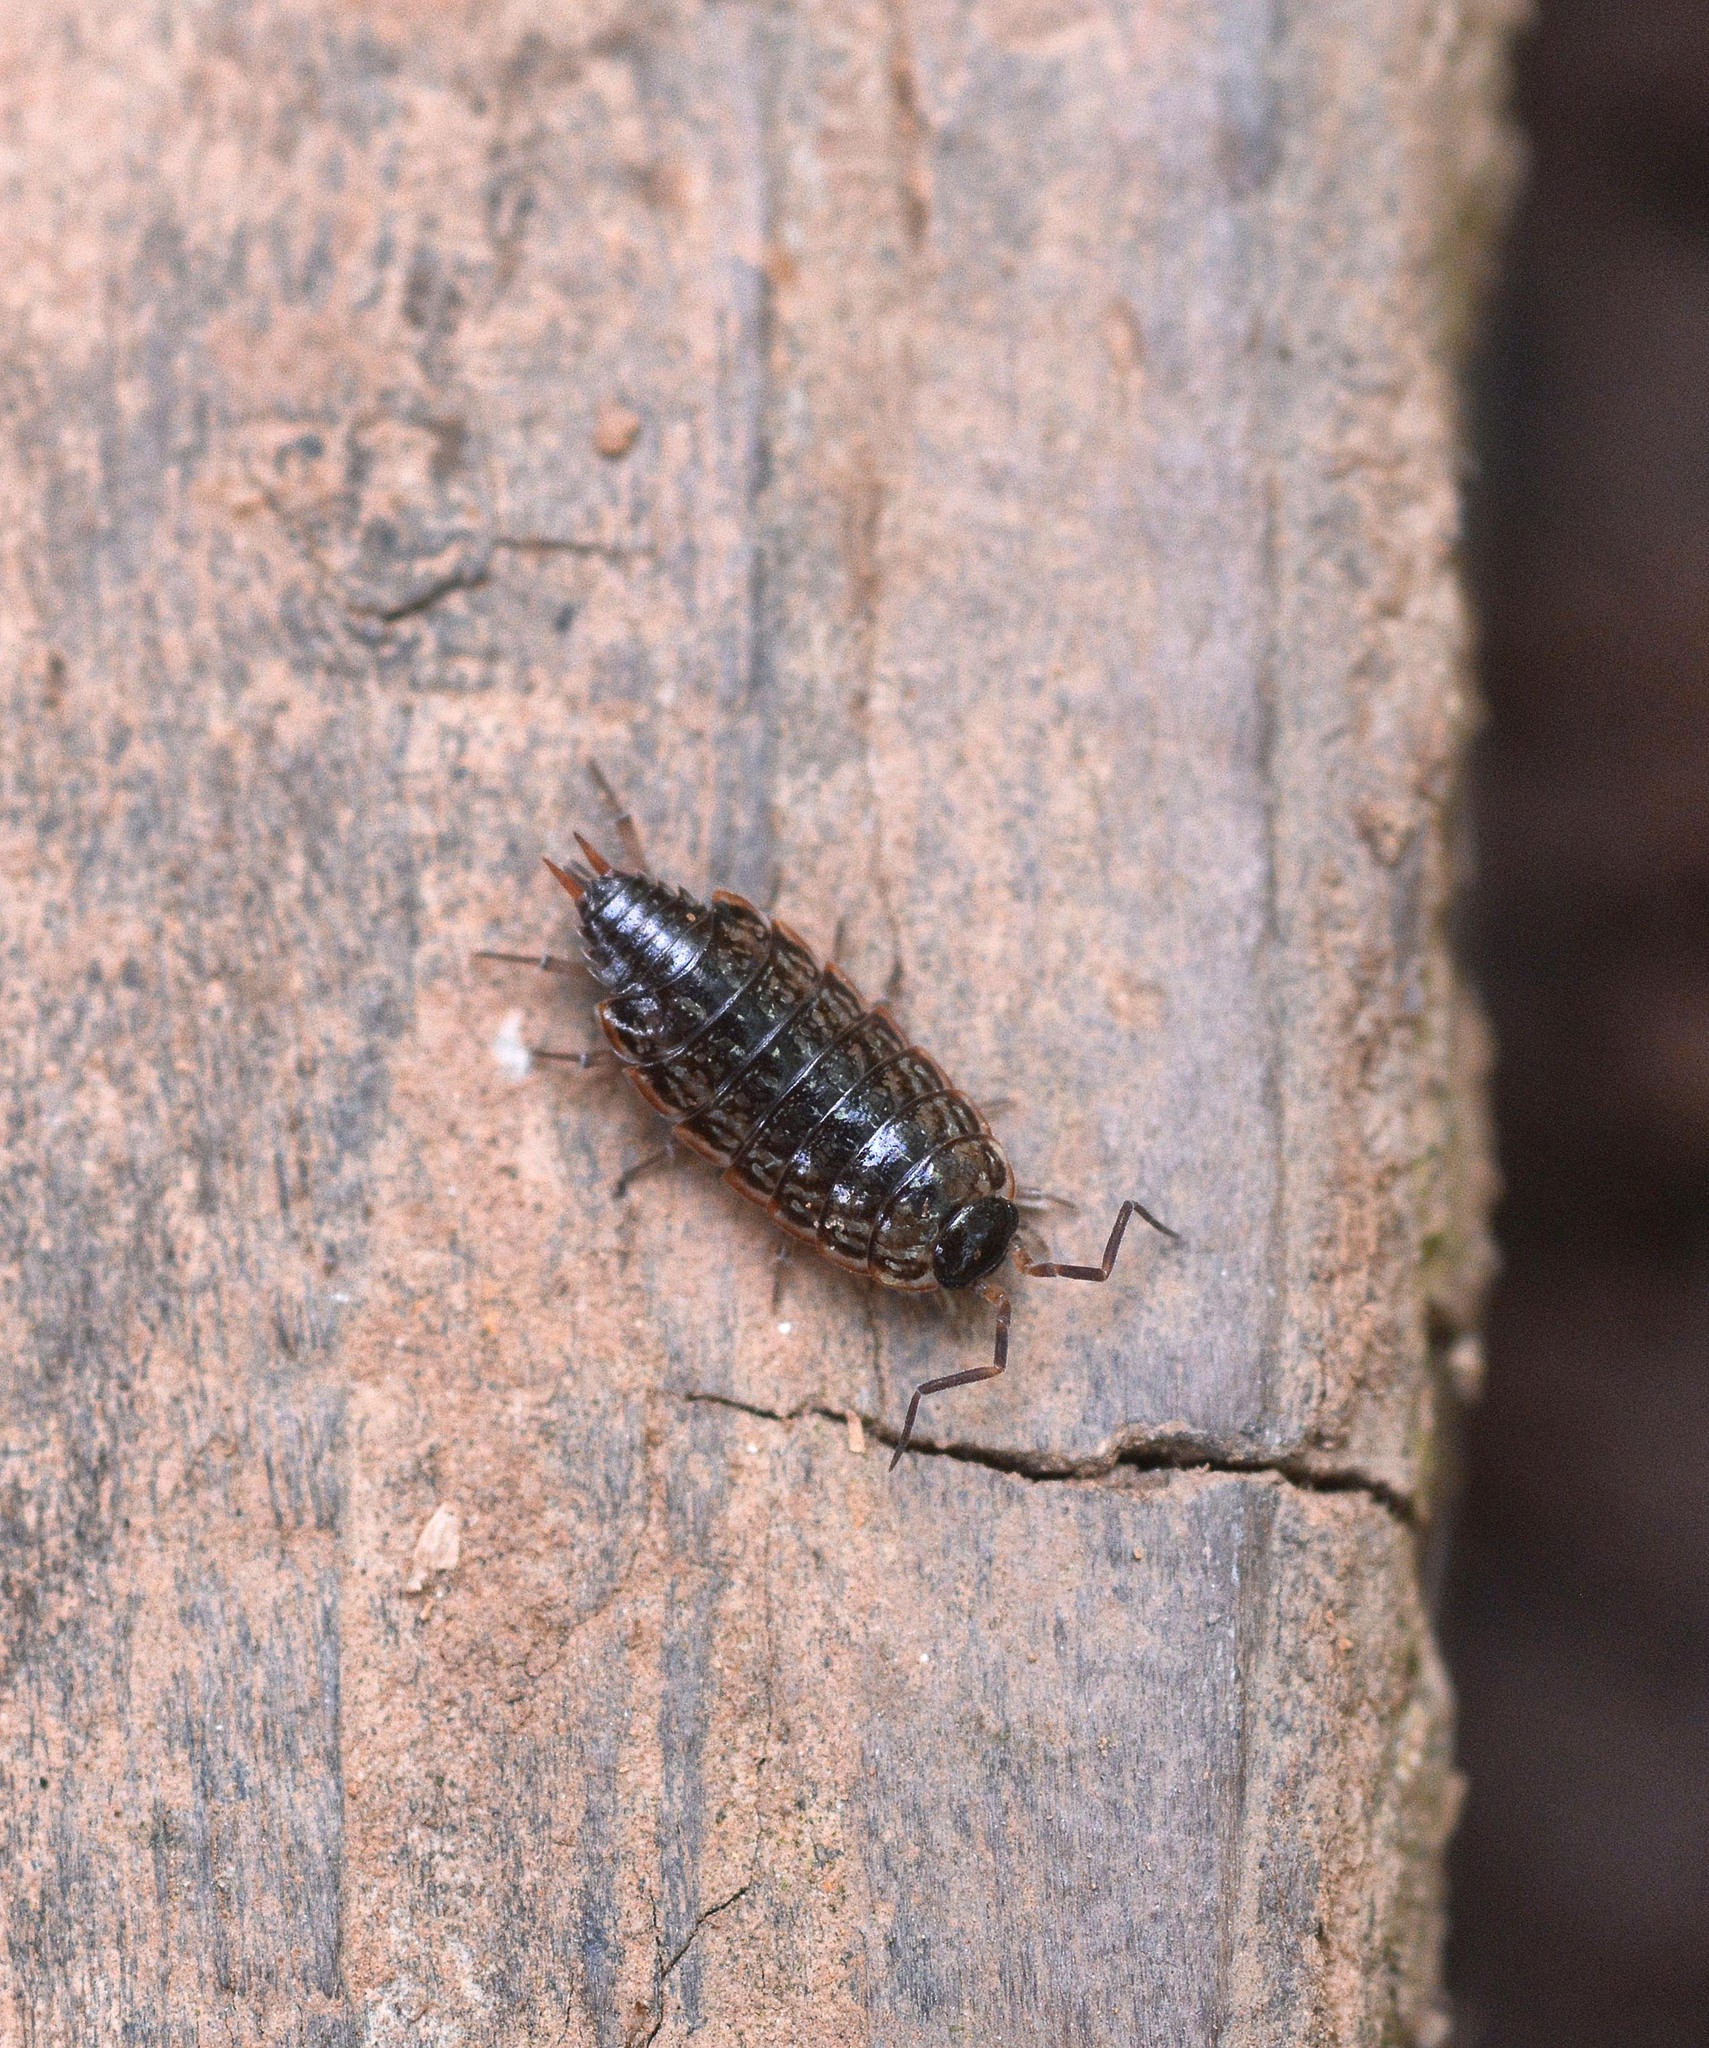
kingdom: Animalia
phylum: Arthropoda
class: Malacostraca
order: Isopoda
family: Philosciidae
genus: Philoscia
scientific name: Philoscia muscorum
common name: Common striped woodlouse
